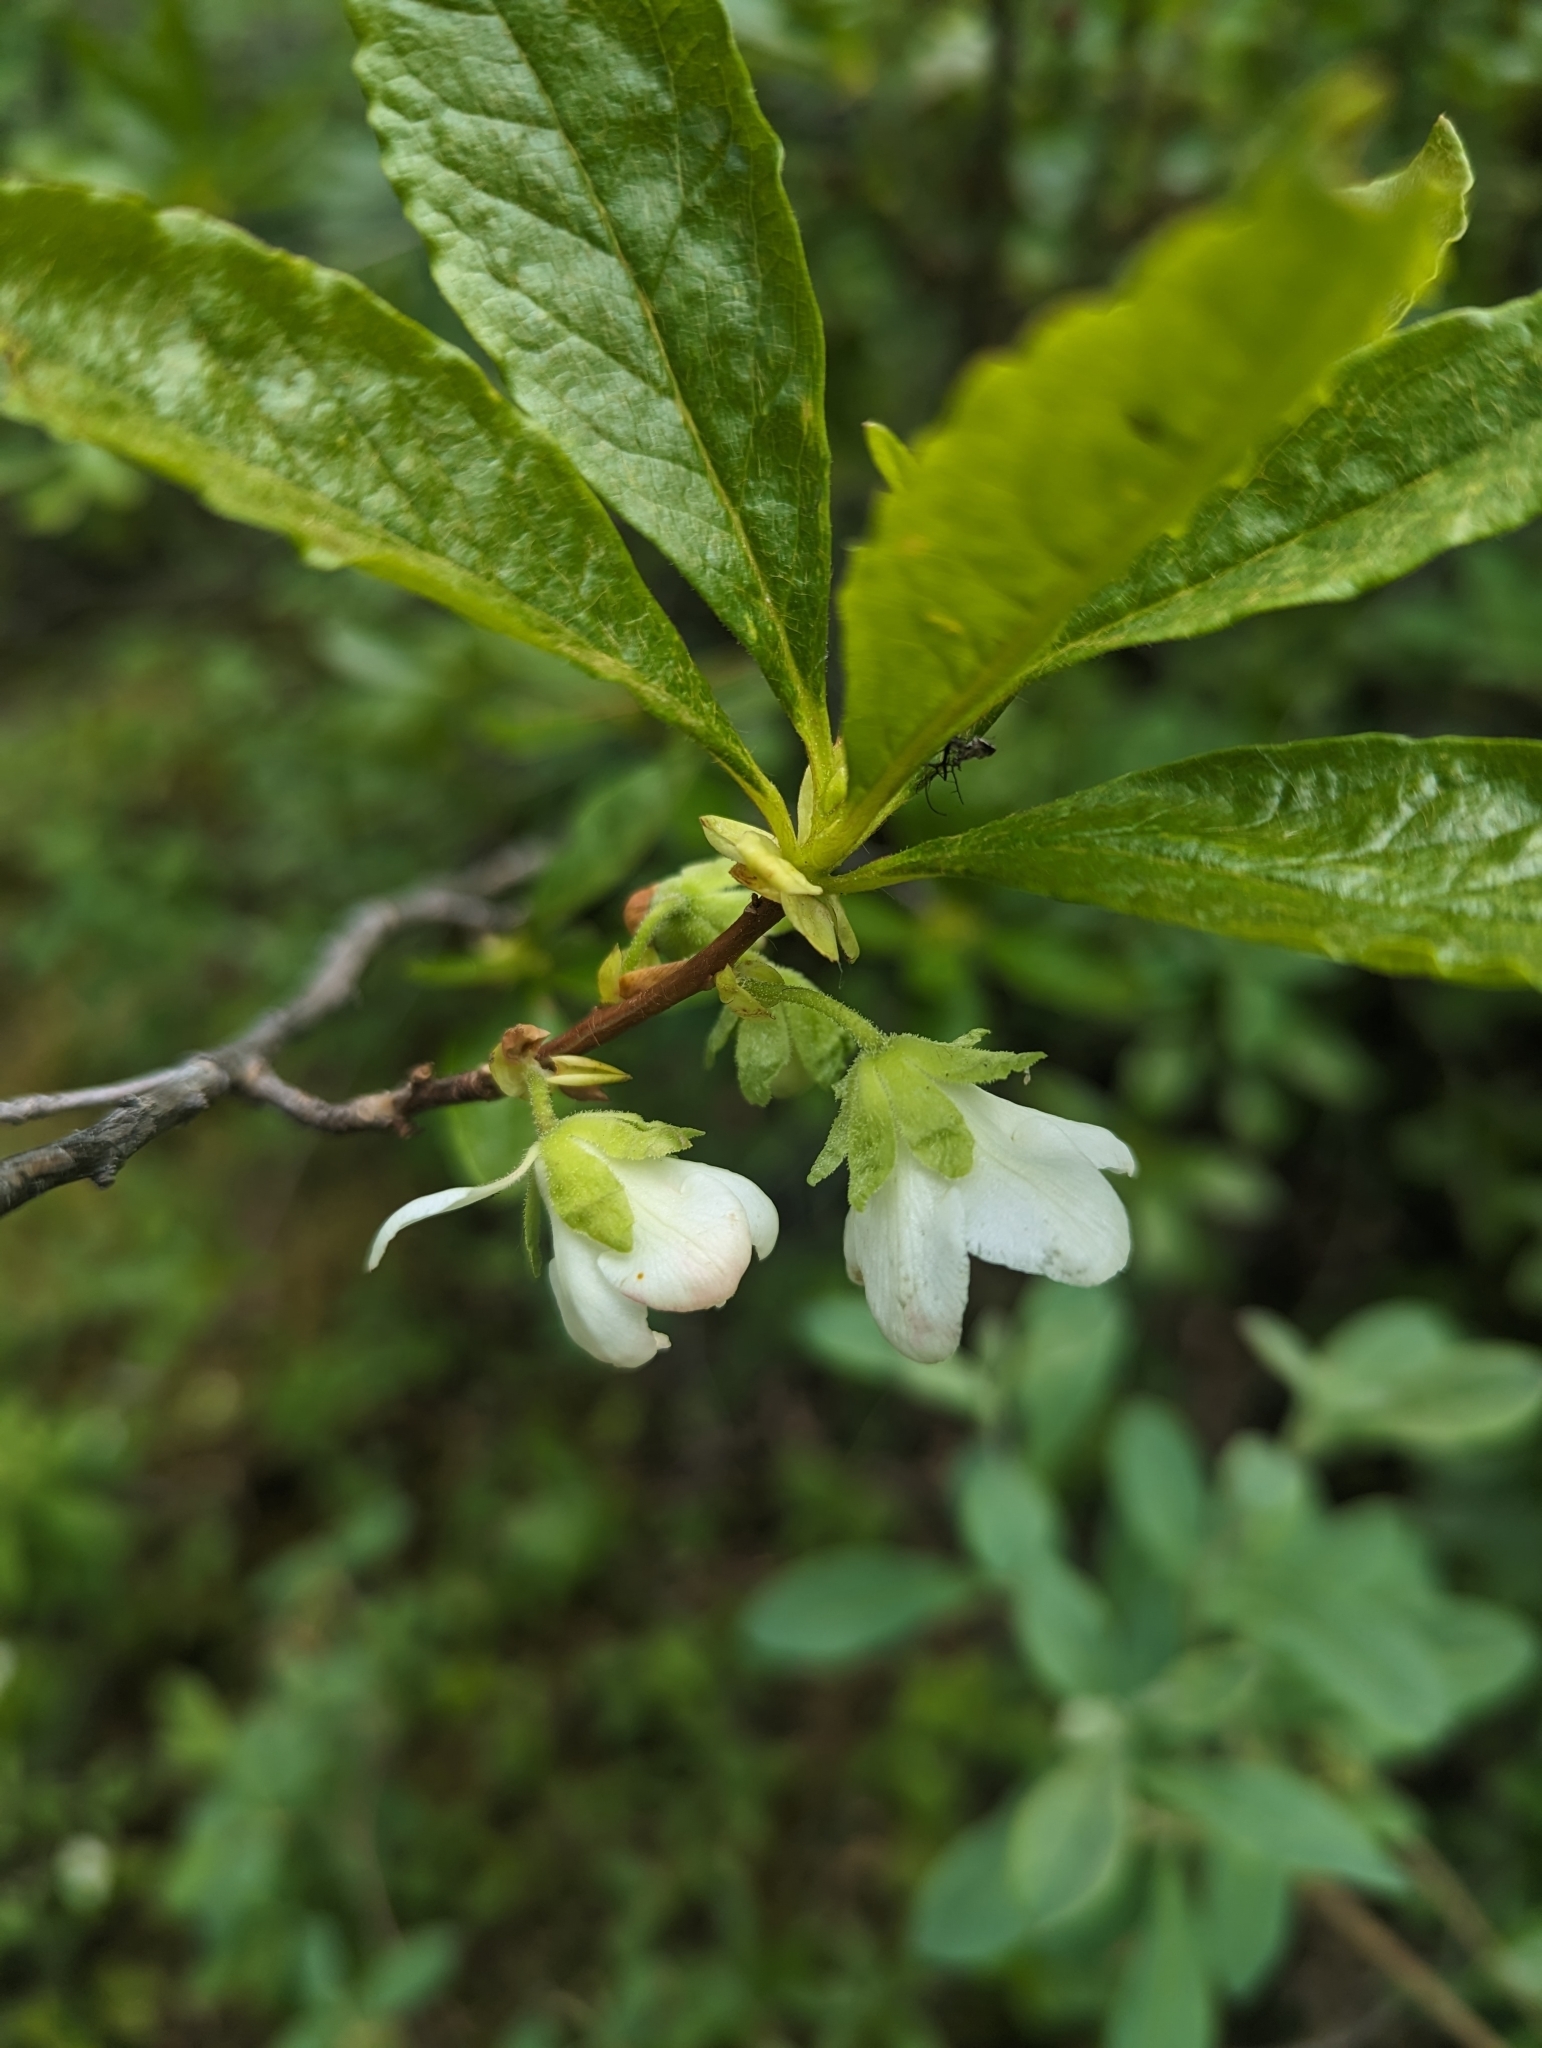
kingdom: Plantae
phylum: Tracheophyta
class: Magnoliopsida
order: Ericales
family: Ericaceae
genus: Rhododendron
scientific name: Rhododendron albiflorum
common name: White rhododendron
